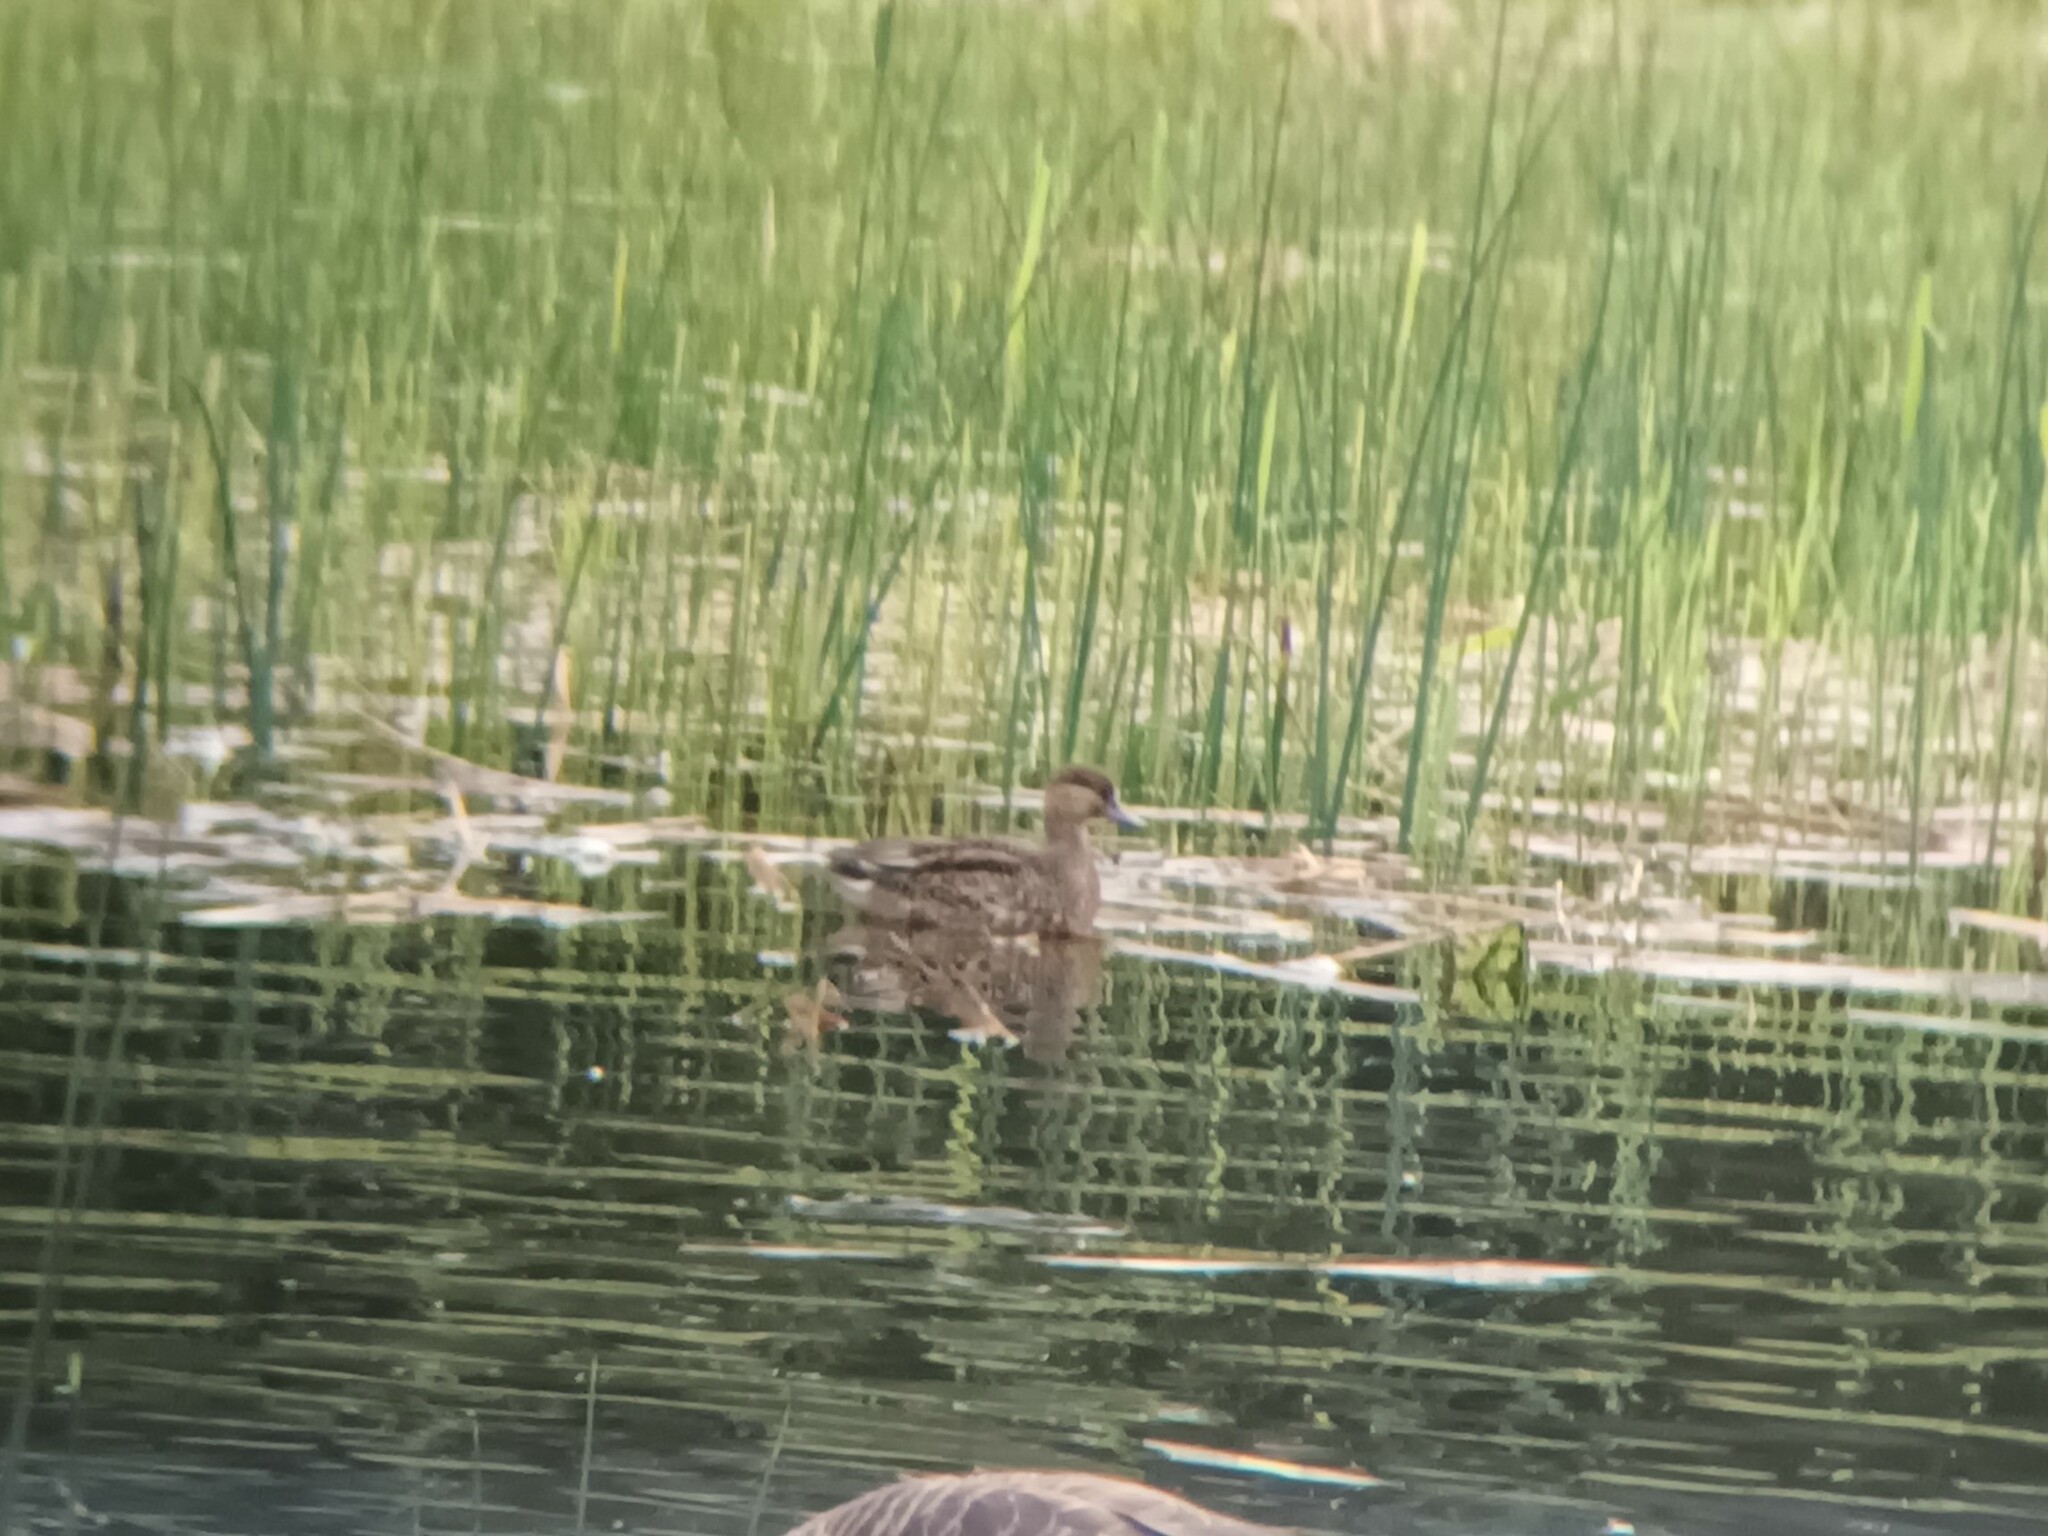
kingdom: Animalia
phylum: Chordata
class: Aves
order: Anseriformes
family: Anatidae
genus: Anas
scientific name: Anas crecca
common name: Eurasian teal
